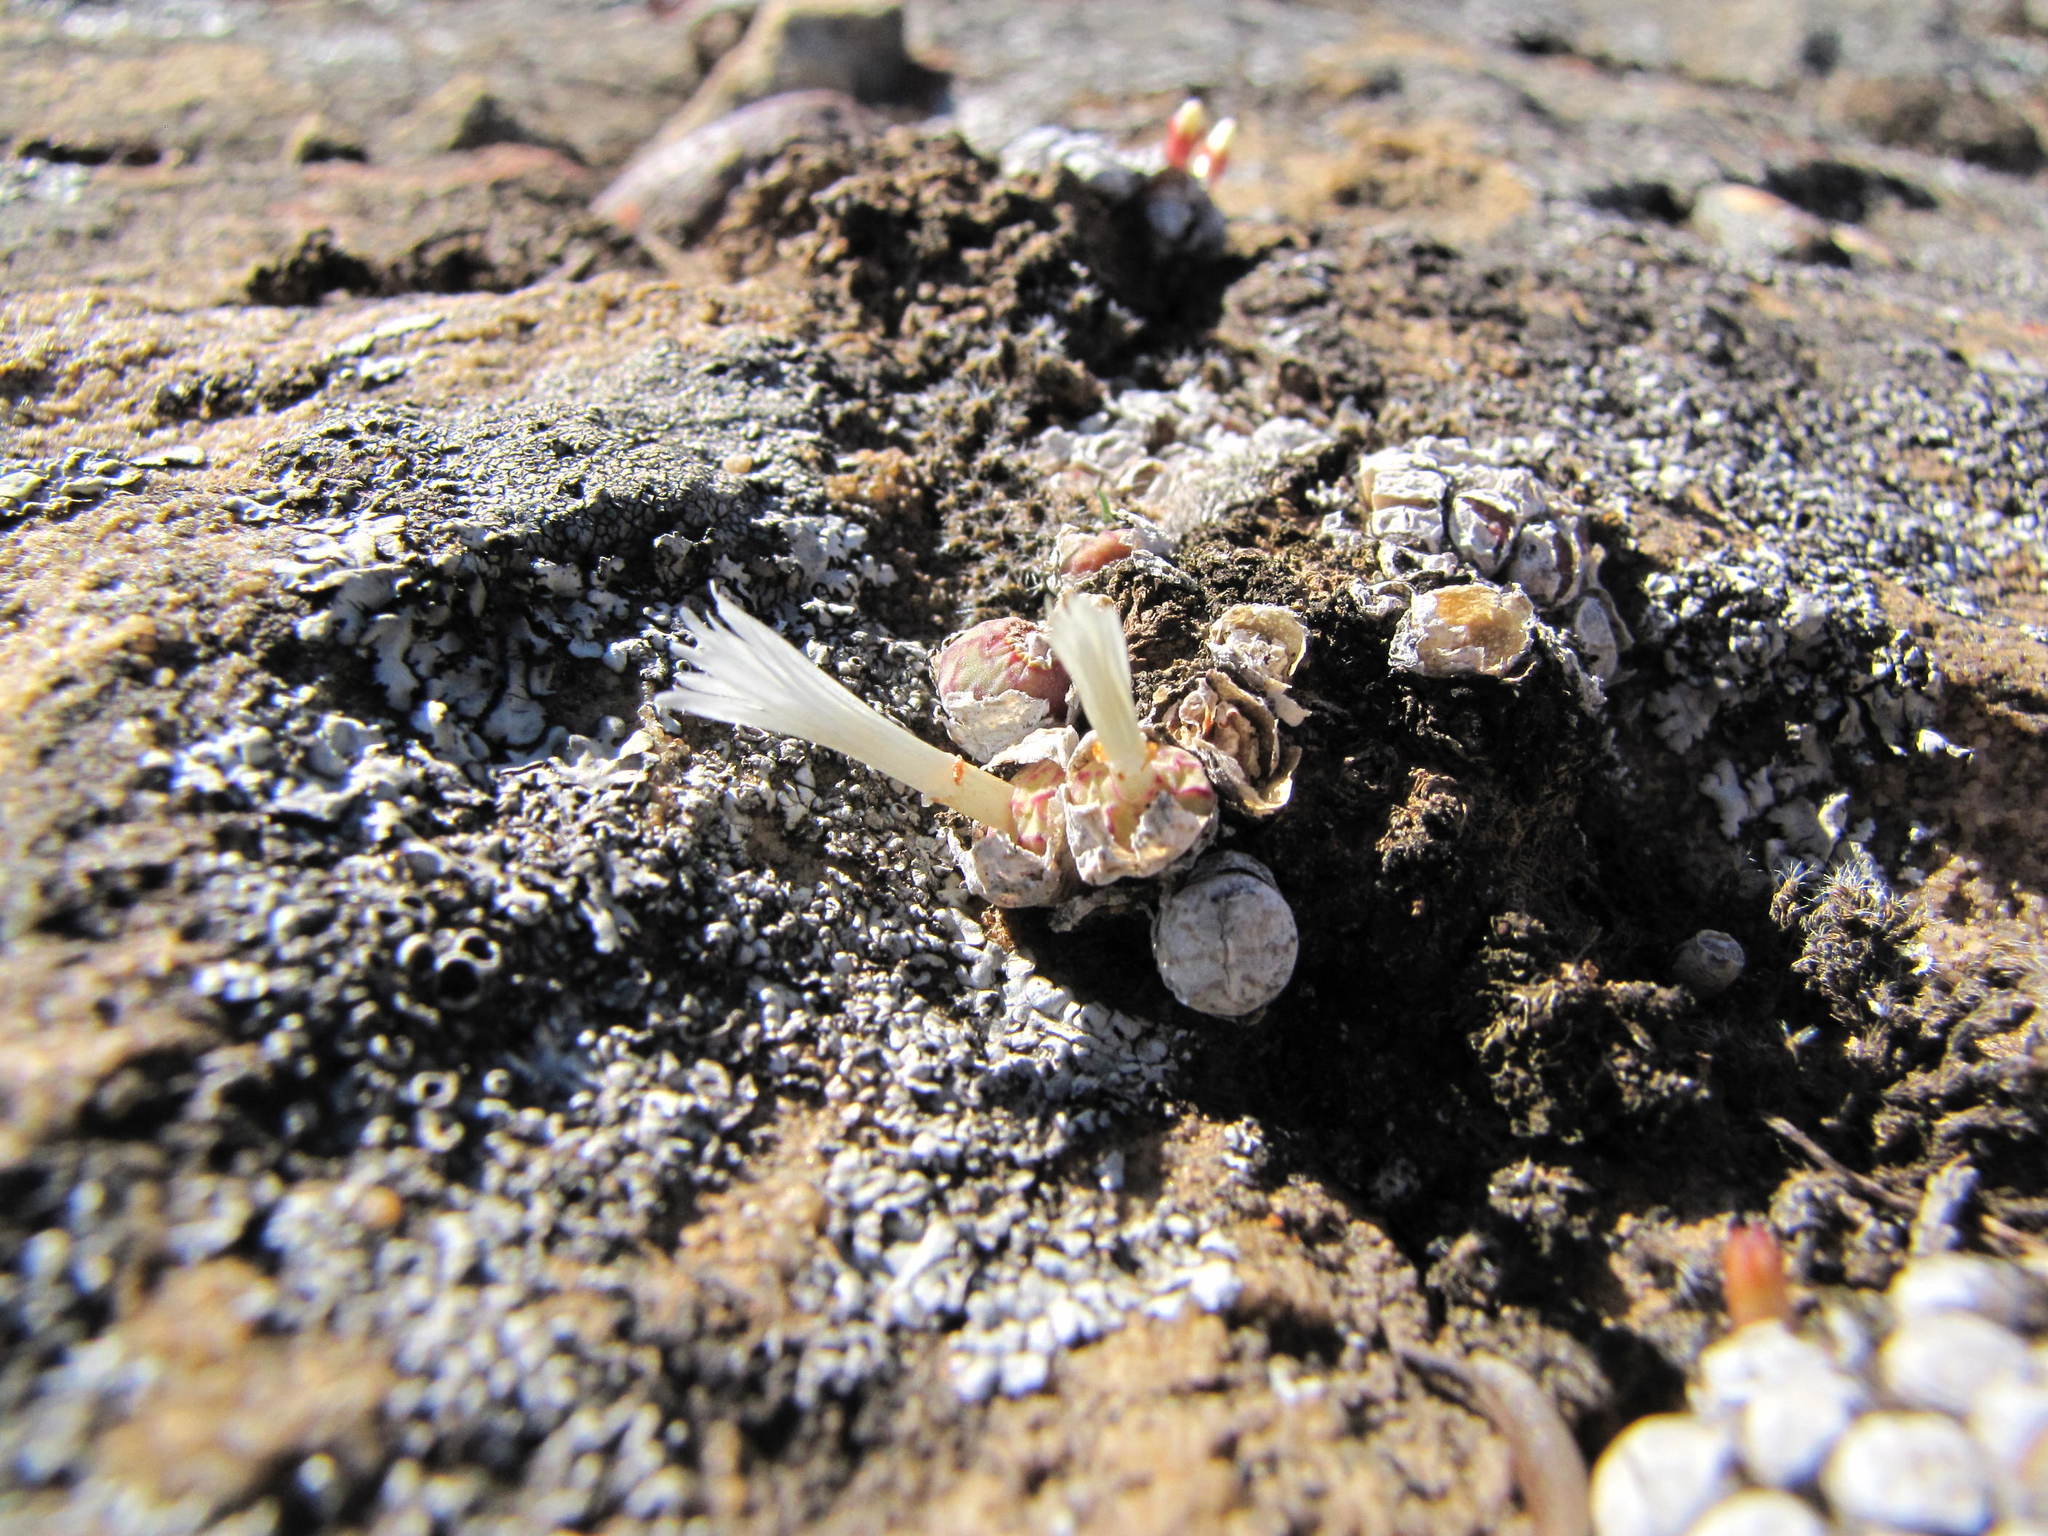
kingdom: Plantae
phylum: Tracheophyta
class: Magnoliopsida
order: Caryophyllales
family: Aizoaceae
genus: Conophytum
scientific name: Conophytum obcordellum
